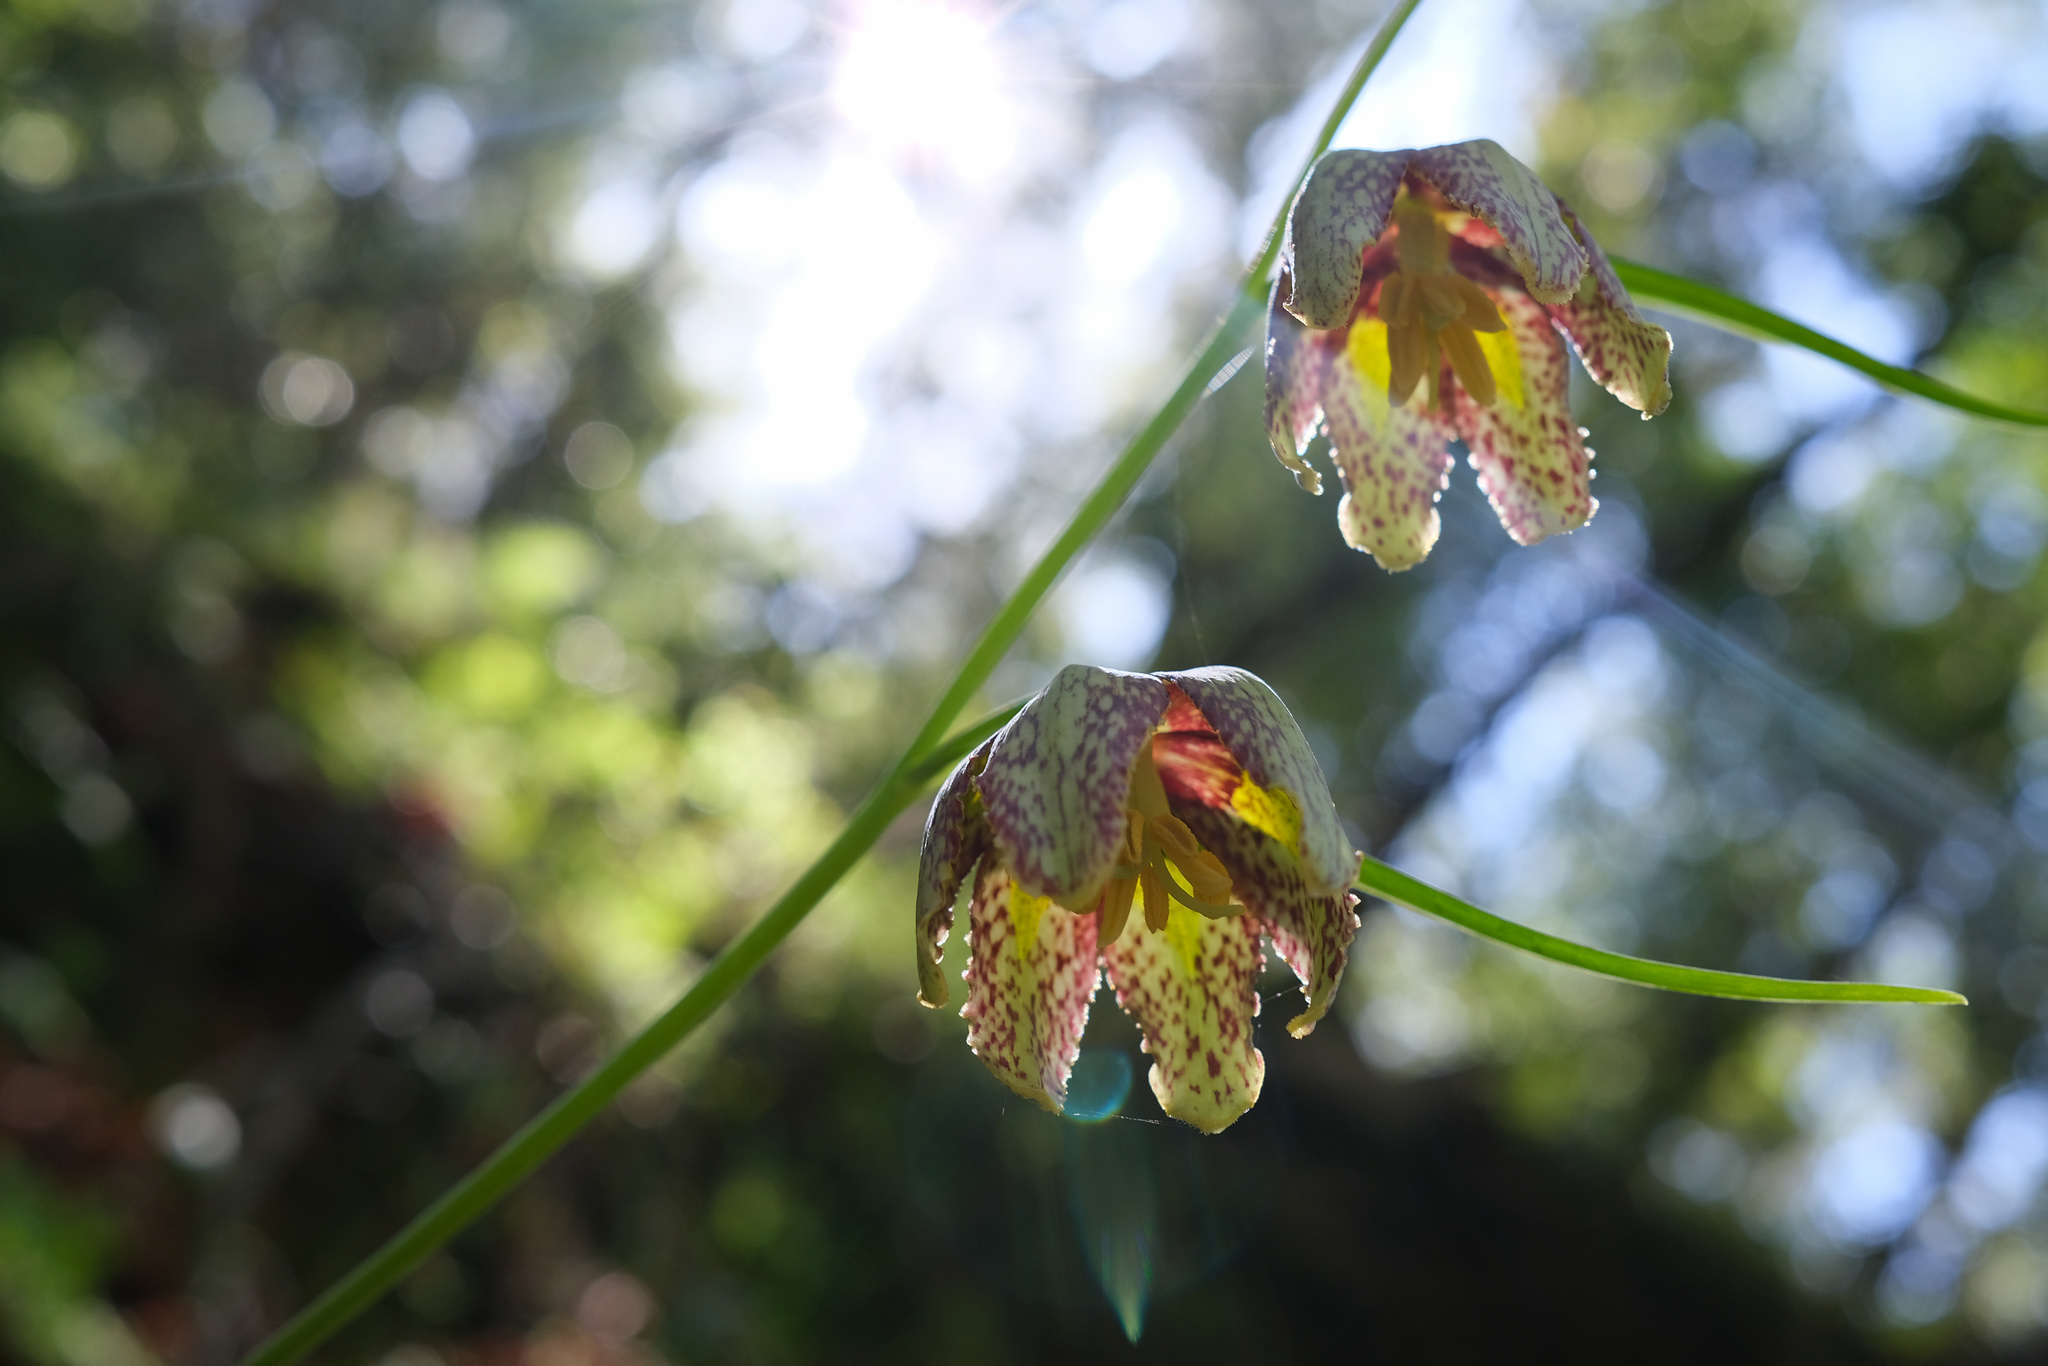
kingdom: Plantae
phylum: Tracheophyta
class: Liliopsida
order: Liliales
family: Liliaceae
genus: Fritillaria
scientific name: Fritillaria affinis
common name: Ojai fritillary
